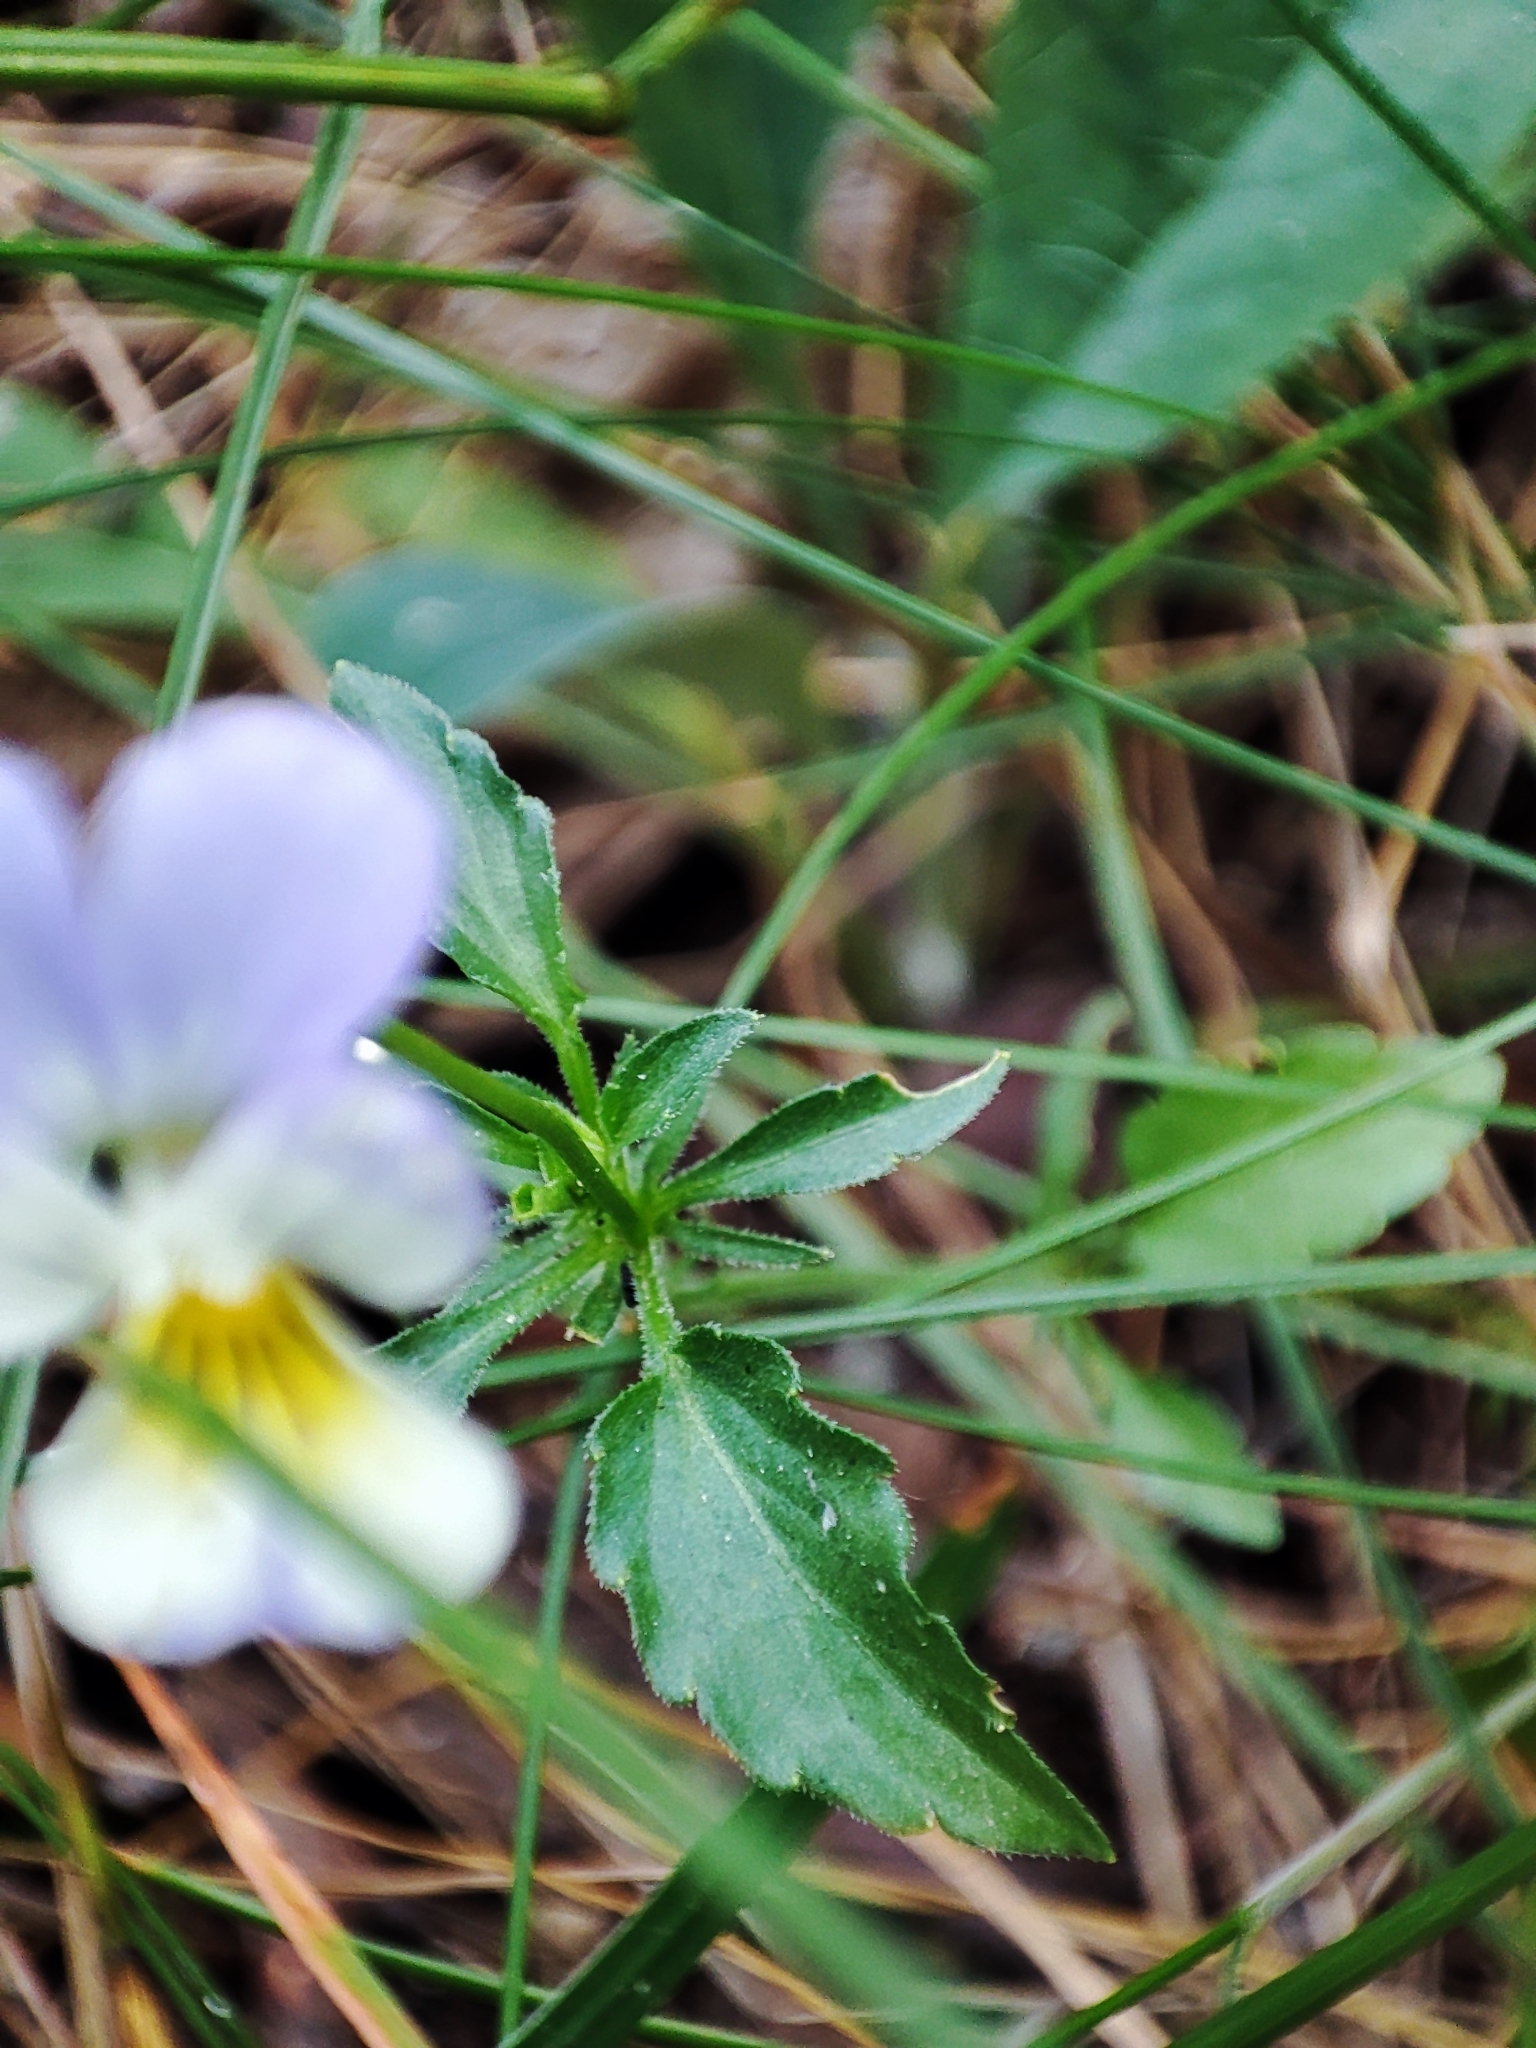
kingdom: Plantae
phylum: Tracheophyta
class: Magnoliopsida
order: Malpighiales
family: Violaceae
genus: Viola
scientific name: Viola tricolor
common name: Pansy
